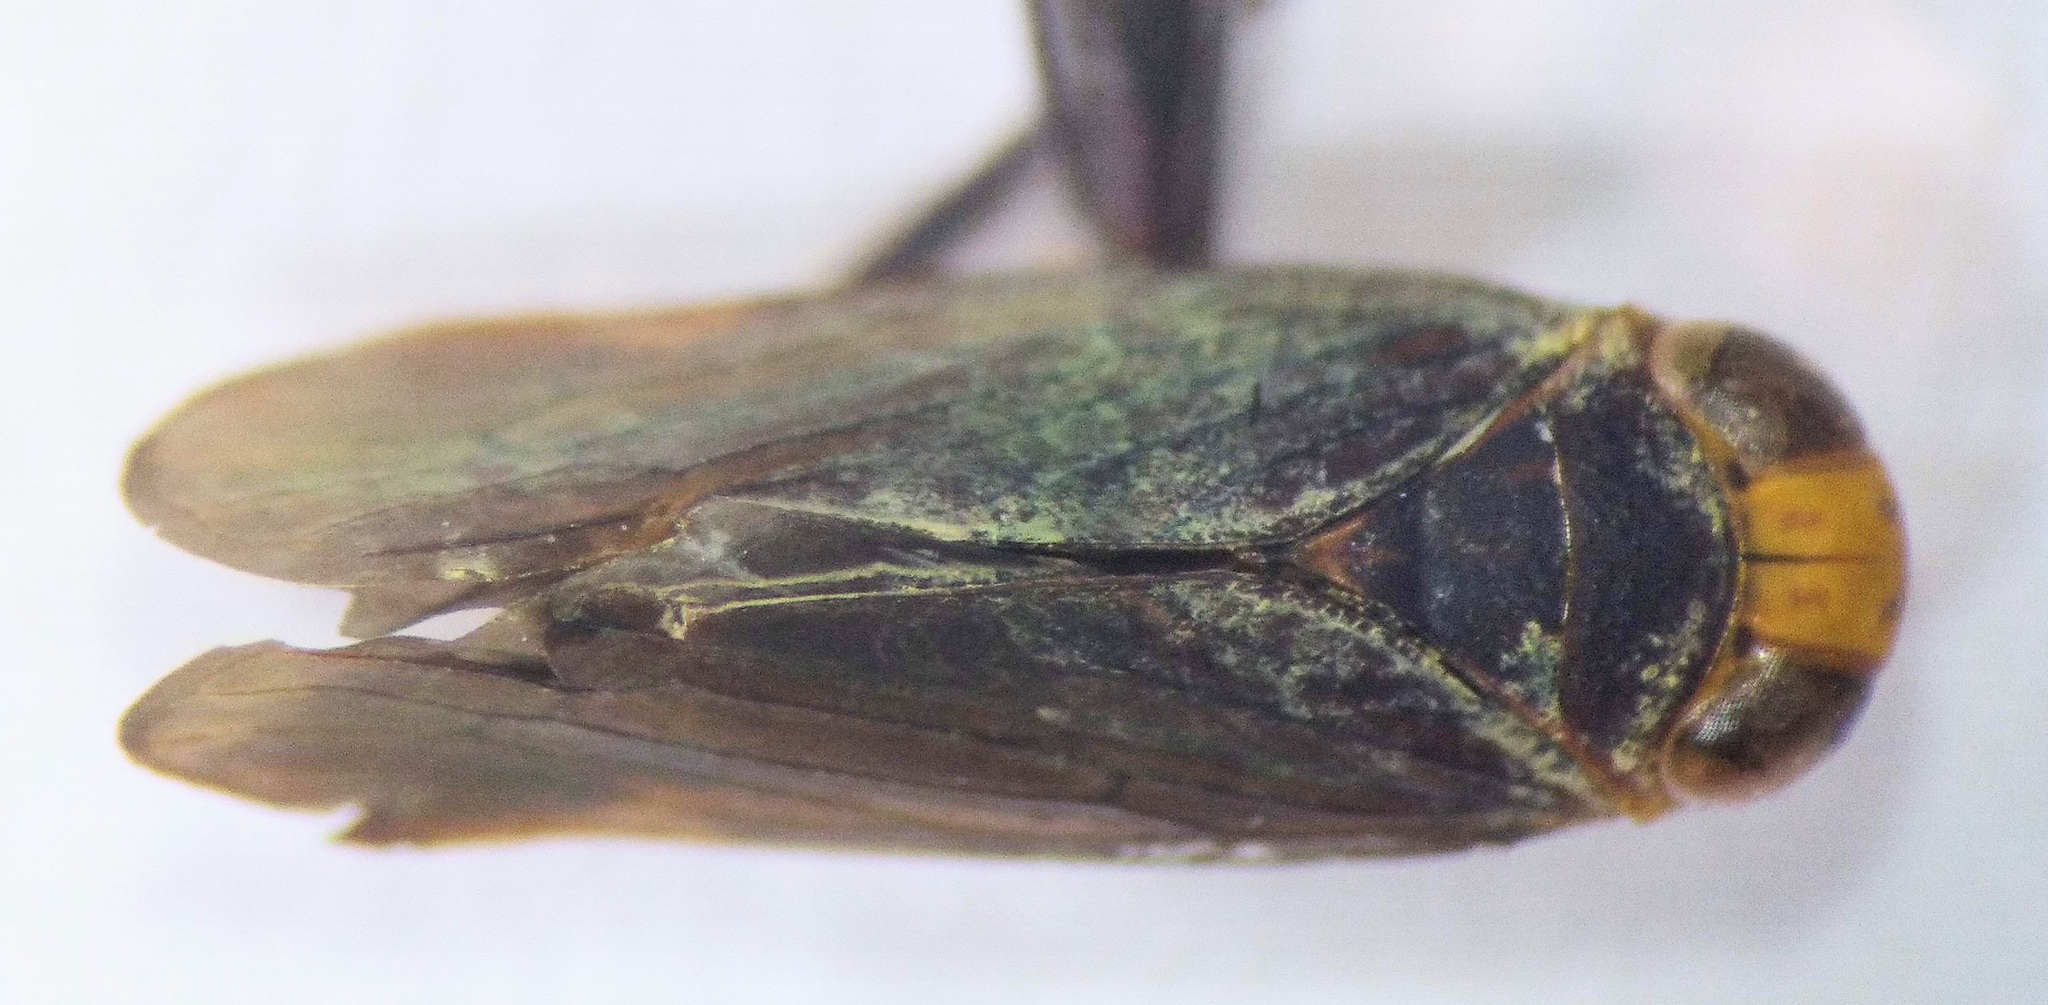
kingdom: Animalia
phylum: Arthropoda
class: Insecta
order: Hemiptera
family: Cicadellidae
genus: Jikradia
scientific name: Jikradia olitoria
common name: Coppery leafhopper
